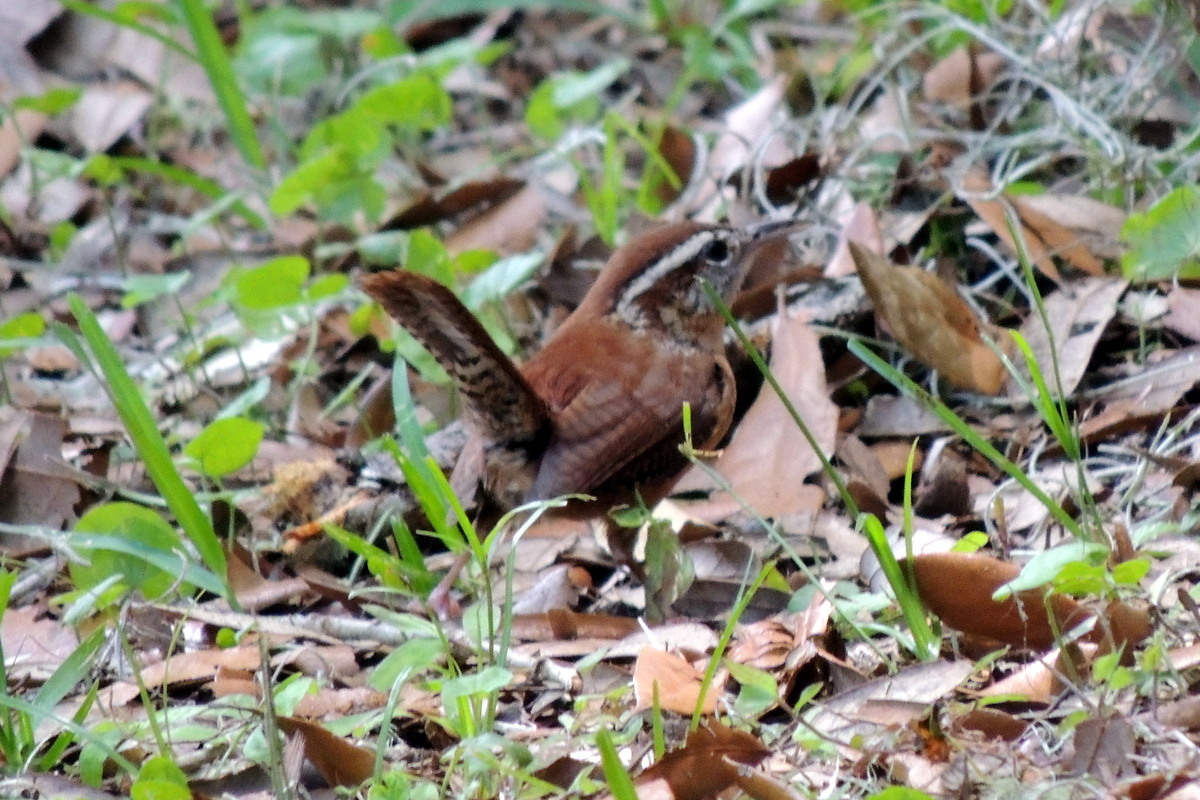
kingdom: Animalia
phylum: Chordata
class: Aves
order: Passeriformes
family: Troglodytidae
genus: Thryothorus
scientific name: Thryothorus ludovicianus
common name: Carolina wren
